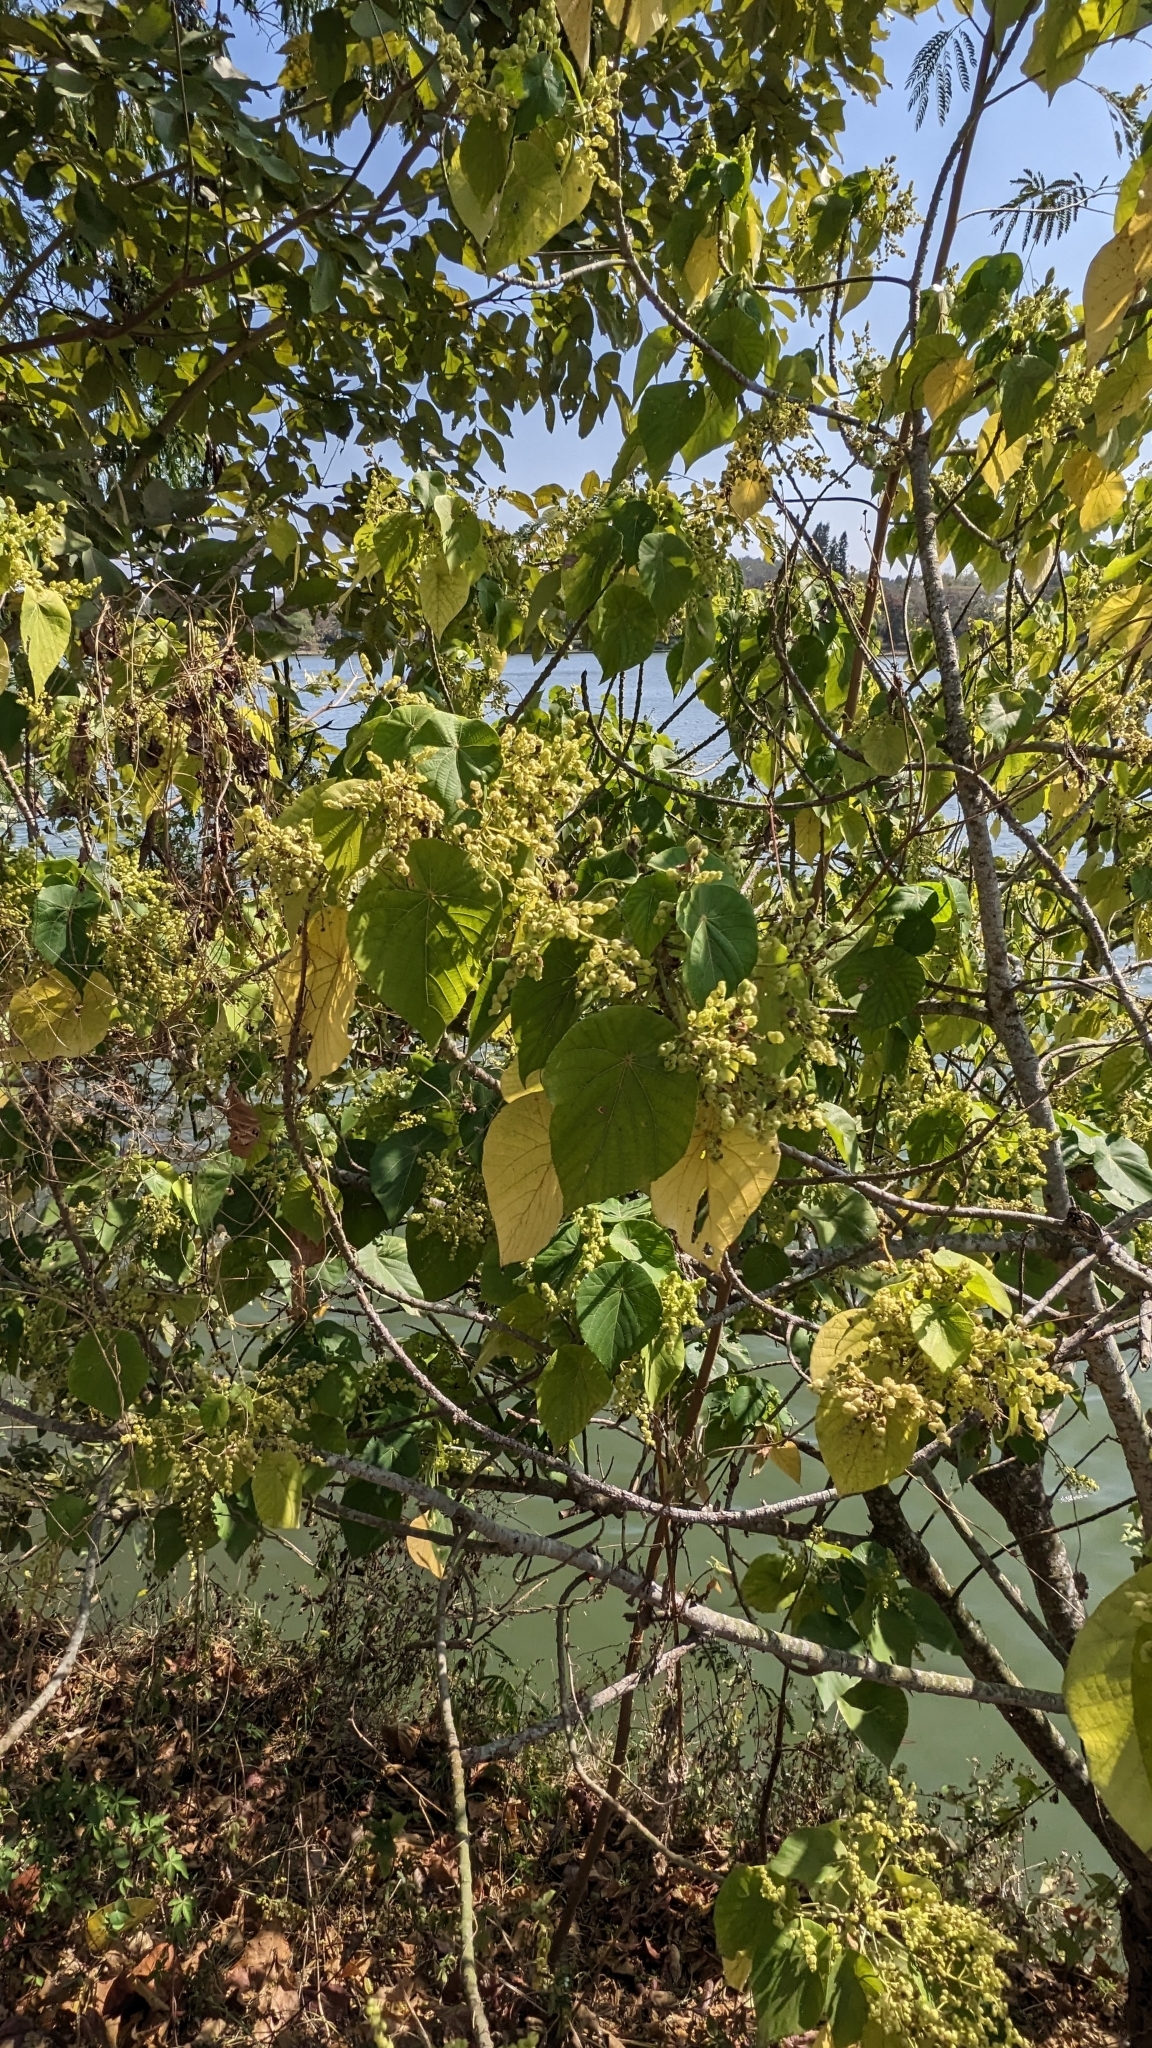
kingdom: Plantae
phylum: Tracheophyta
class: Magnoliopsida
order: Malpighiales
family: Euphorbiaceae
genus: Macaranga
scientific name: Macaranga tanarius
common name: Parasol leaf tree
